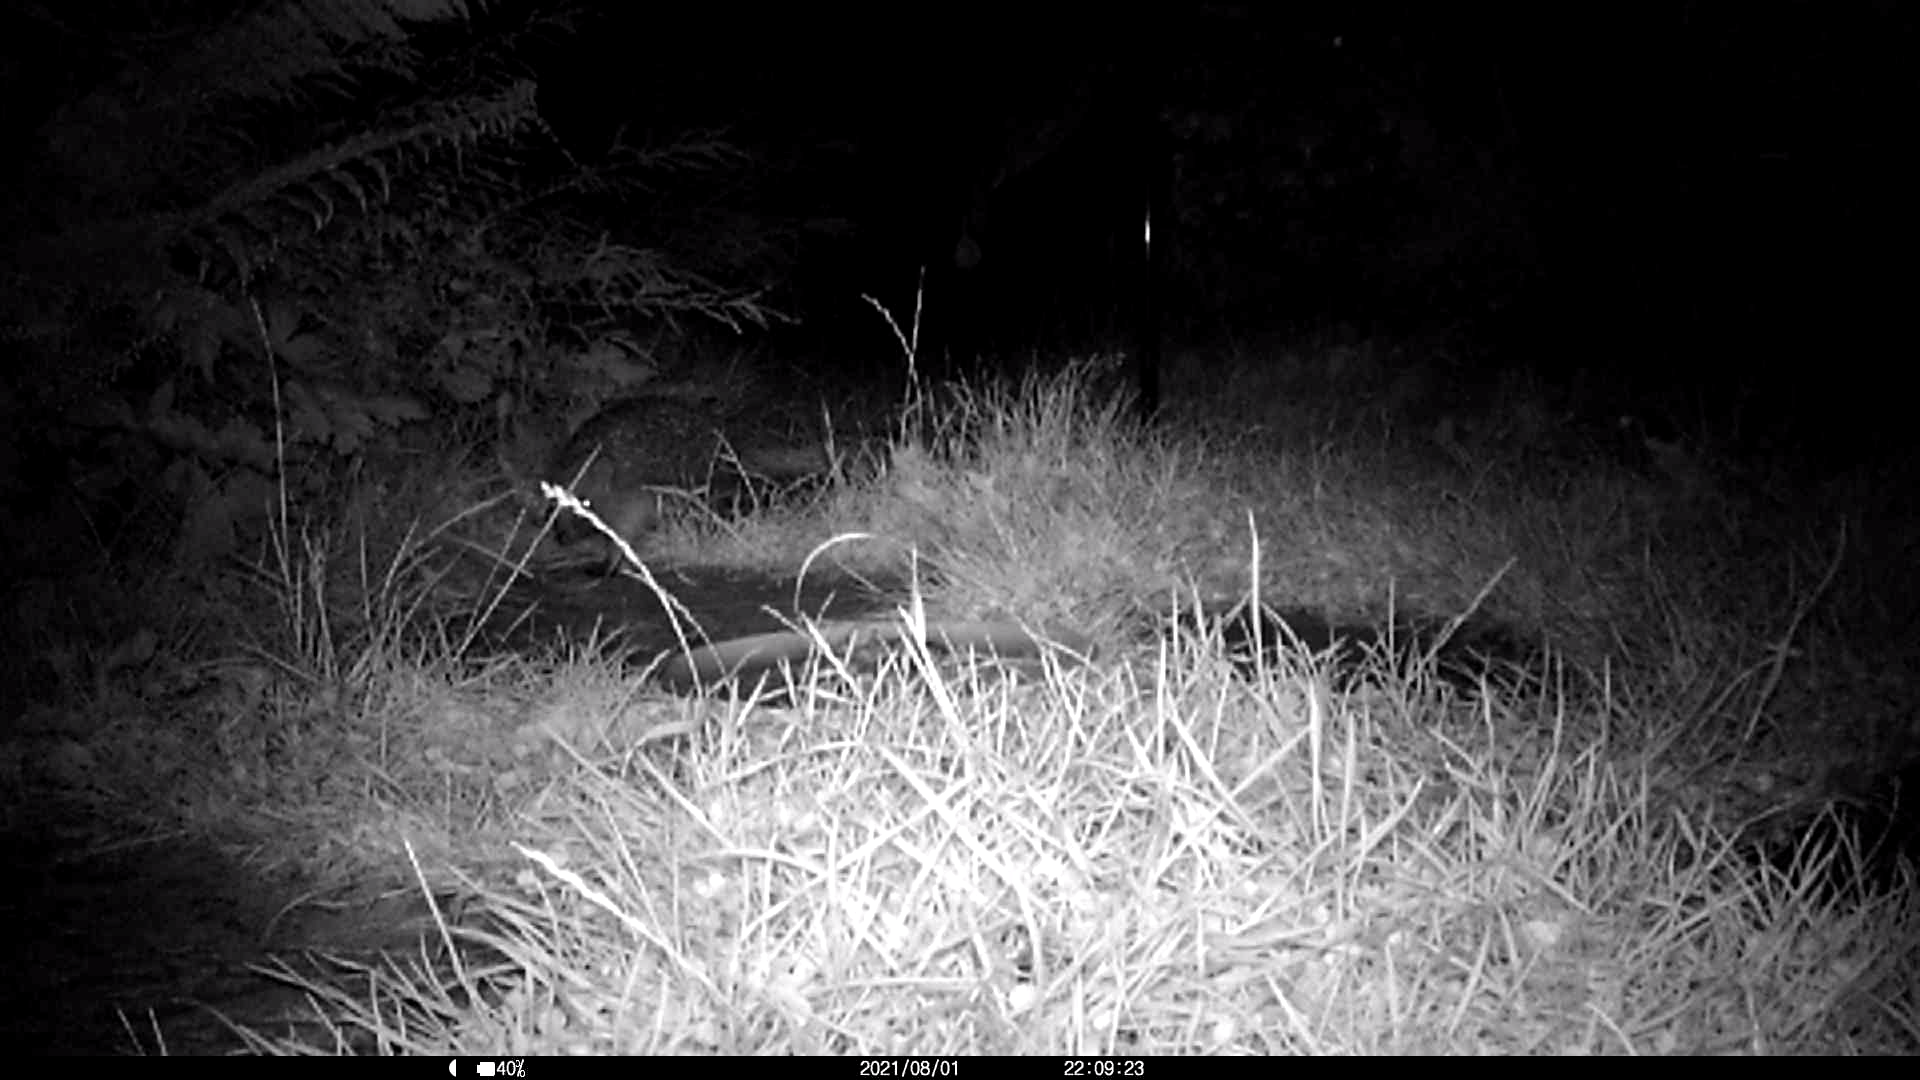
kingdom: Animalia
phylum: Chordata
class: Mammalia
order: Erinaceomorpha
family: Erinaceidae
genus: Erinaceus
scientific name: Erinaceus europaeus
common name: West european hedgehog
